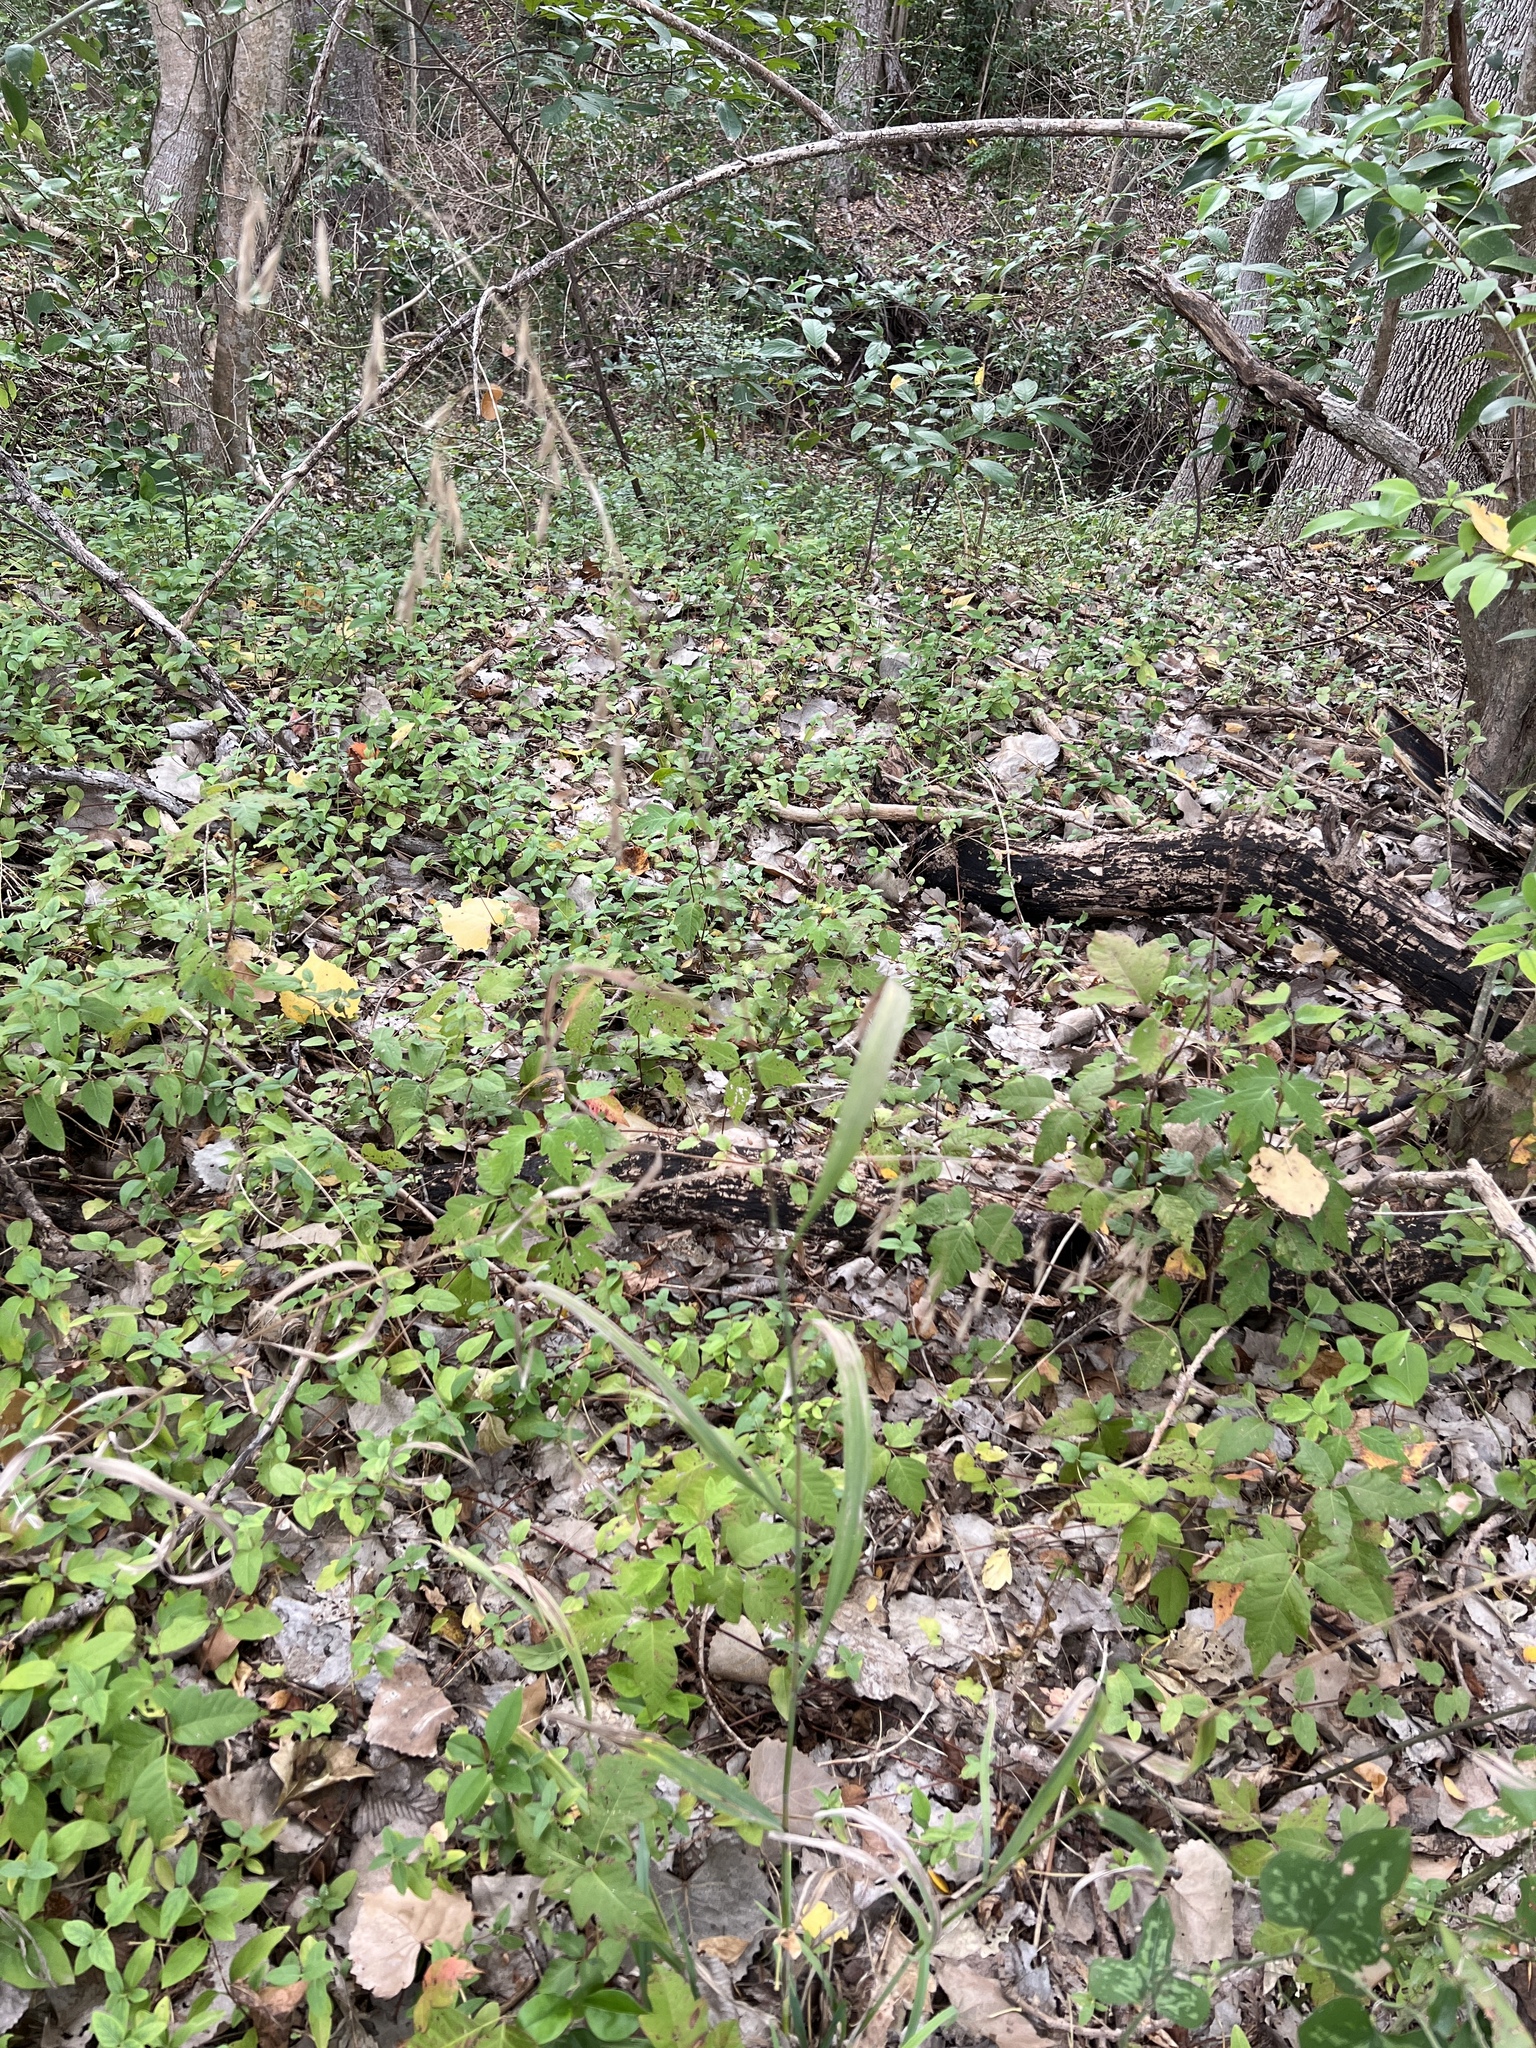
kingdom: Plantae
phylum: Tracheophyta
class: Liliopsida
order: Poales
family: Poaceae
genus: Bromus
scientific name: Bromus pubescens
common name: Hairy wood brome grass
